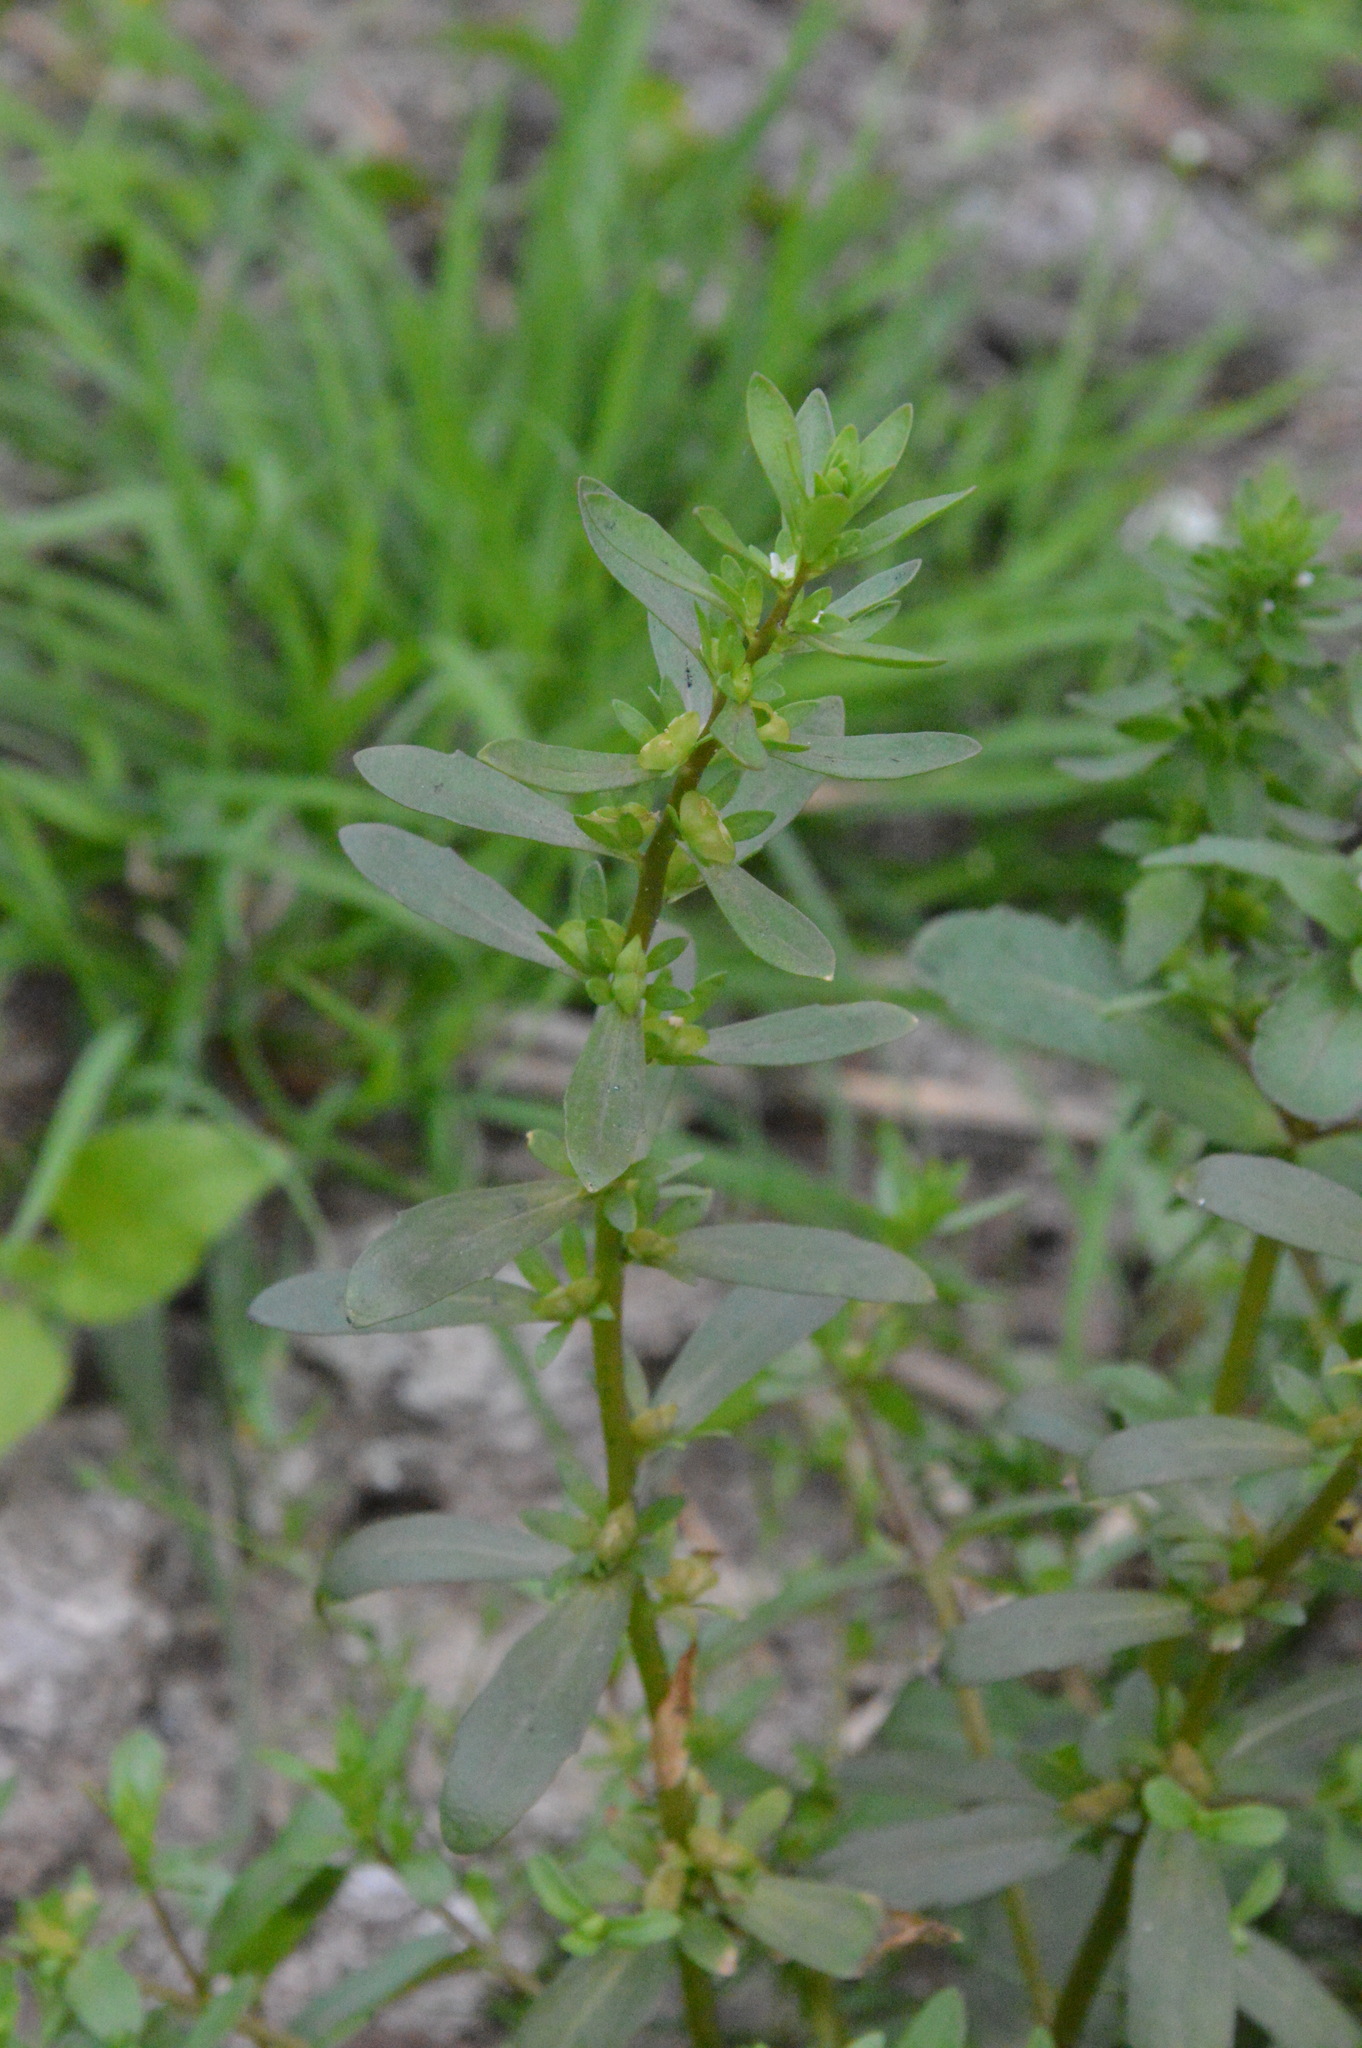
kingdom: Plantae
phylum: Tracheophyta
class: Magnoliopsida
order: Lamiales
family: Plantaginaceae
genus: Veronica
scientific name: Veronica peregrina
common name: Neckweed
